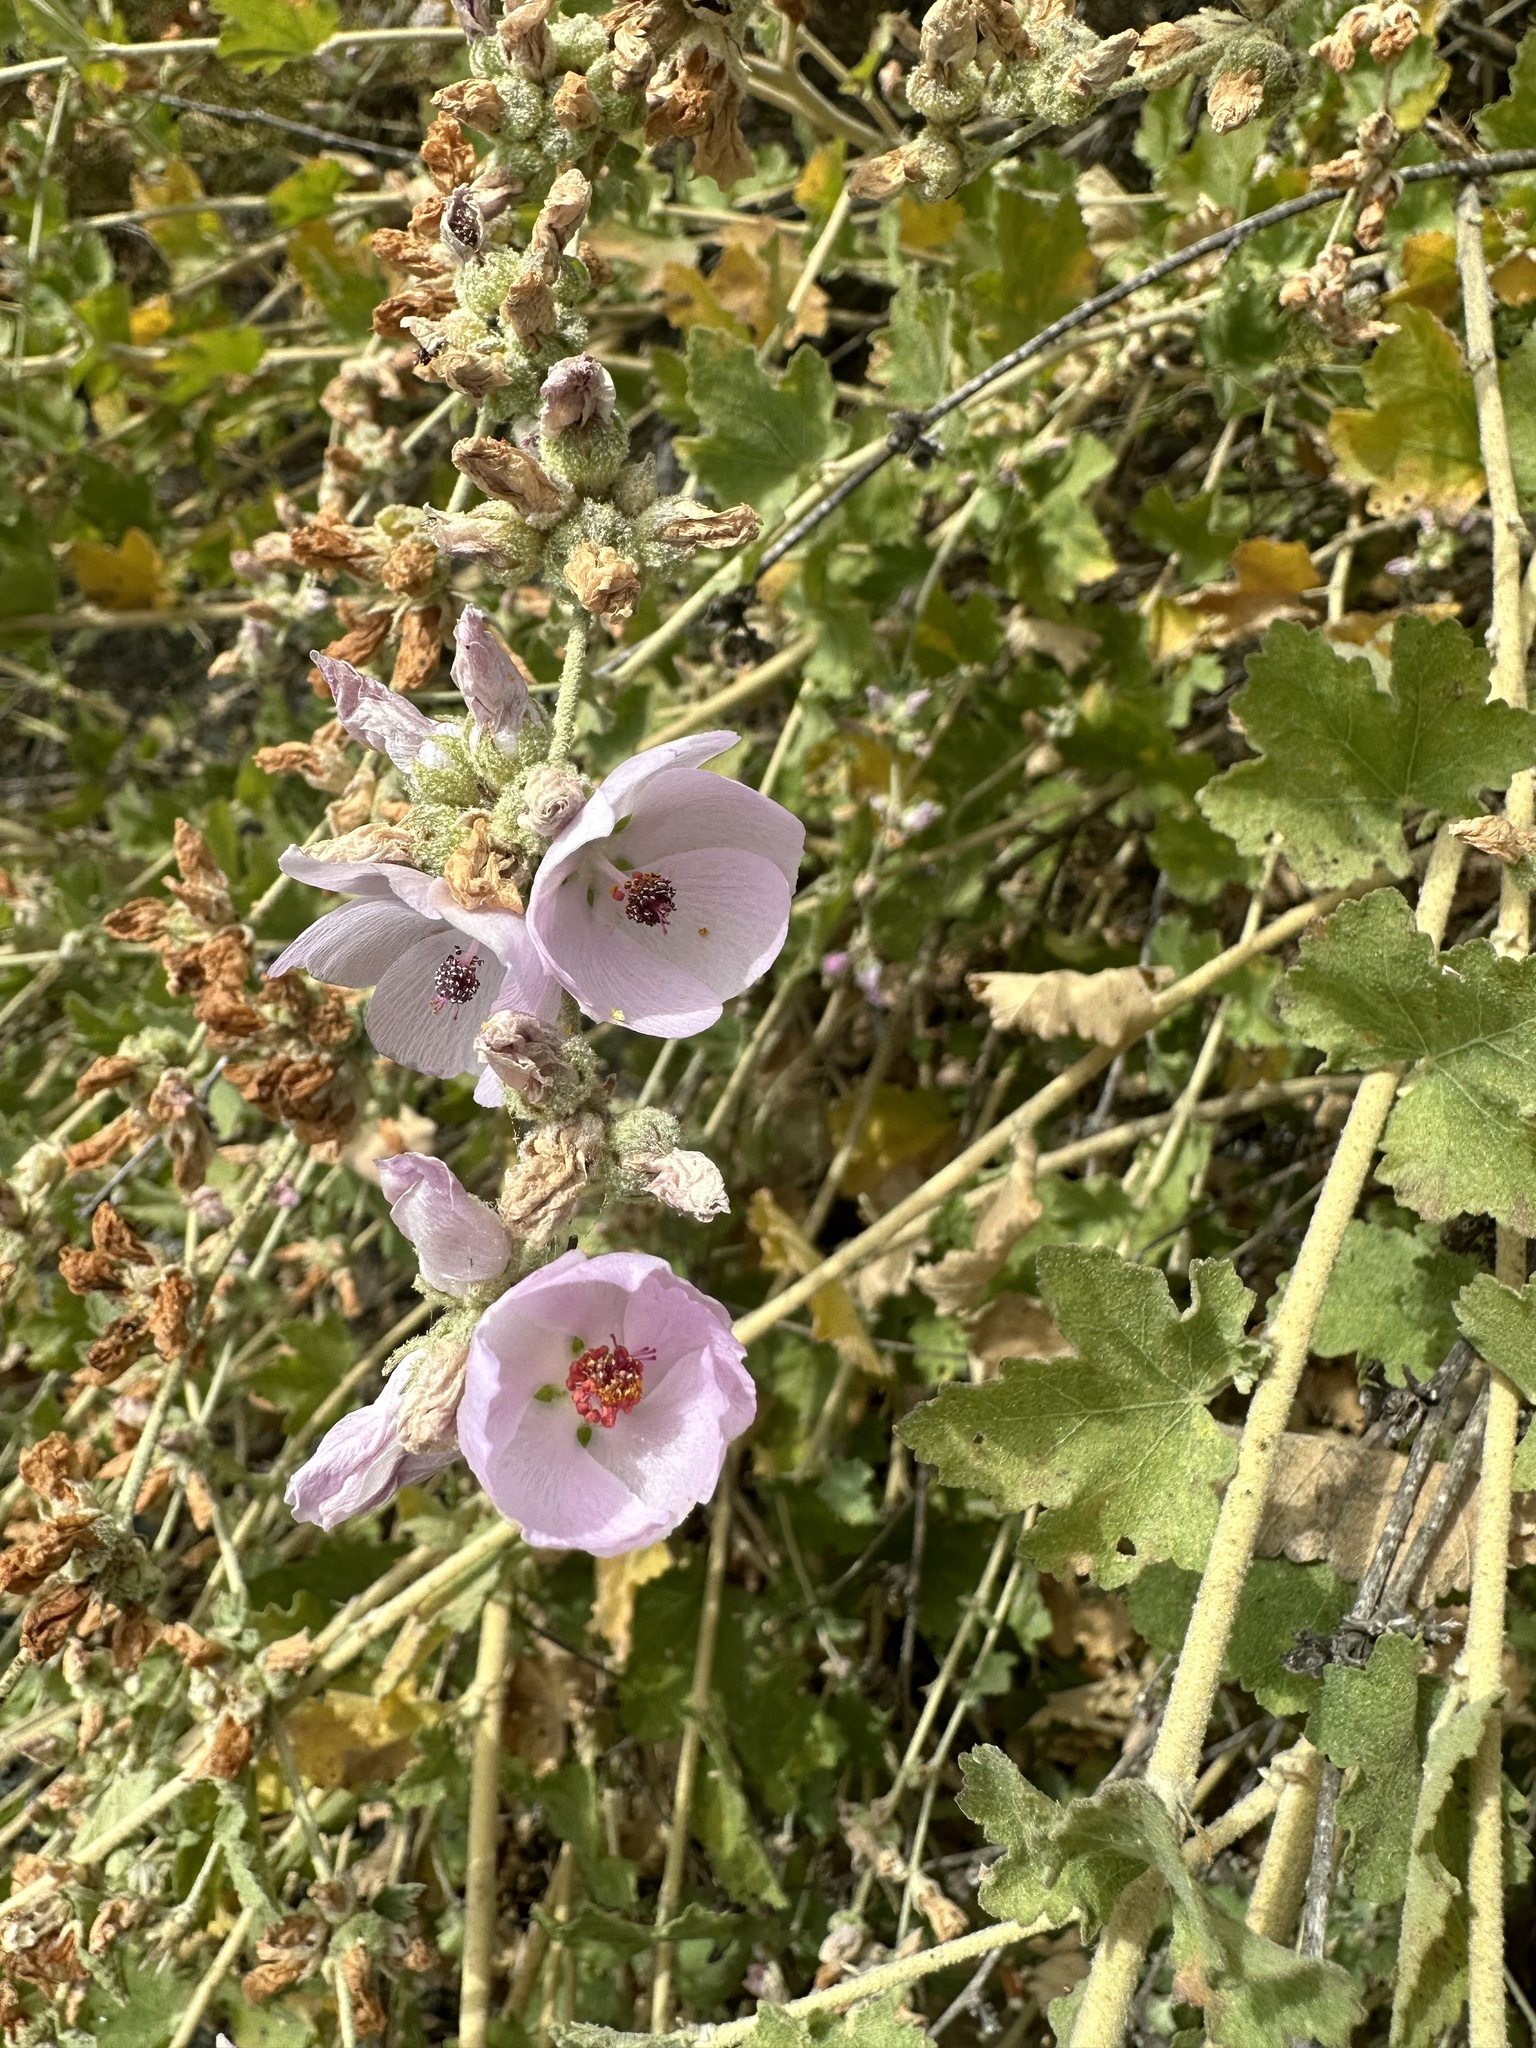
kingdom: Plantae
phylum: Tracheophyta
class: Magnoliopsida
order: Malvales
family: Malvaceae
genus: Malacothamnus
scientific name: Malacothamnus fasciculatus
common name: Sant cruz island bush-mallow
